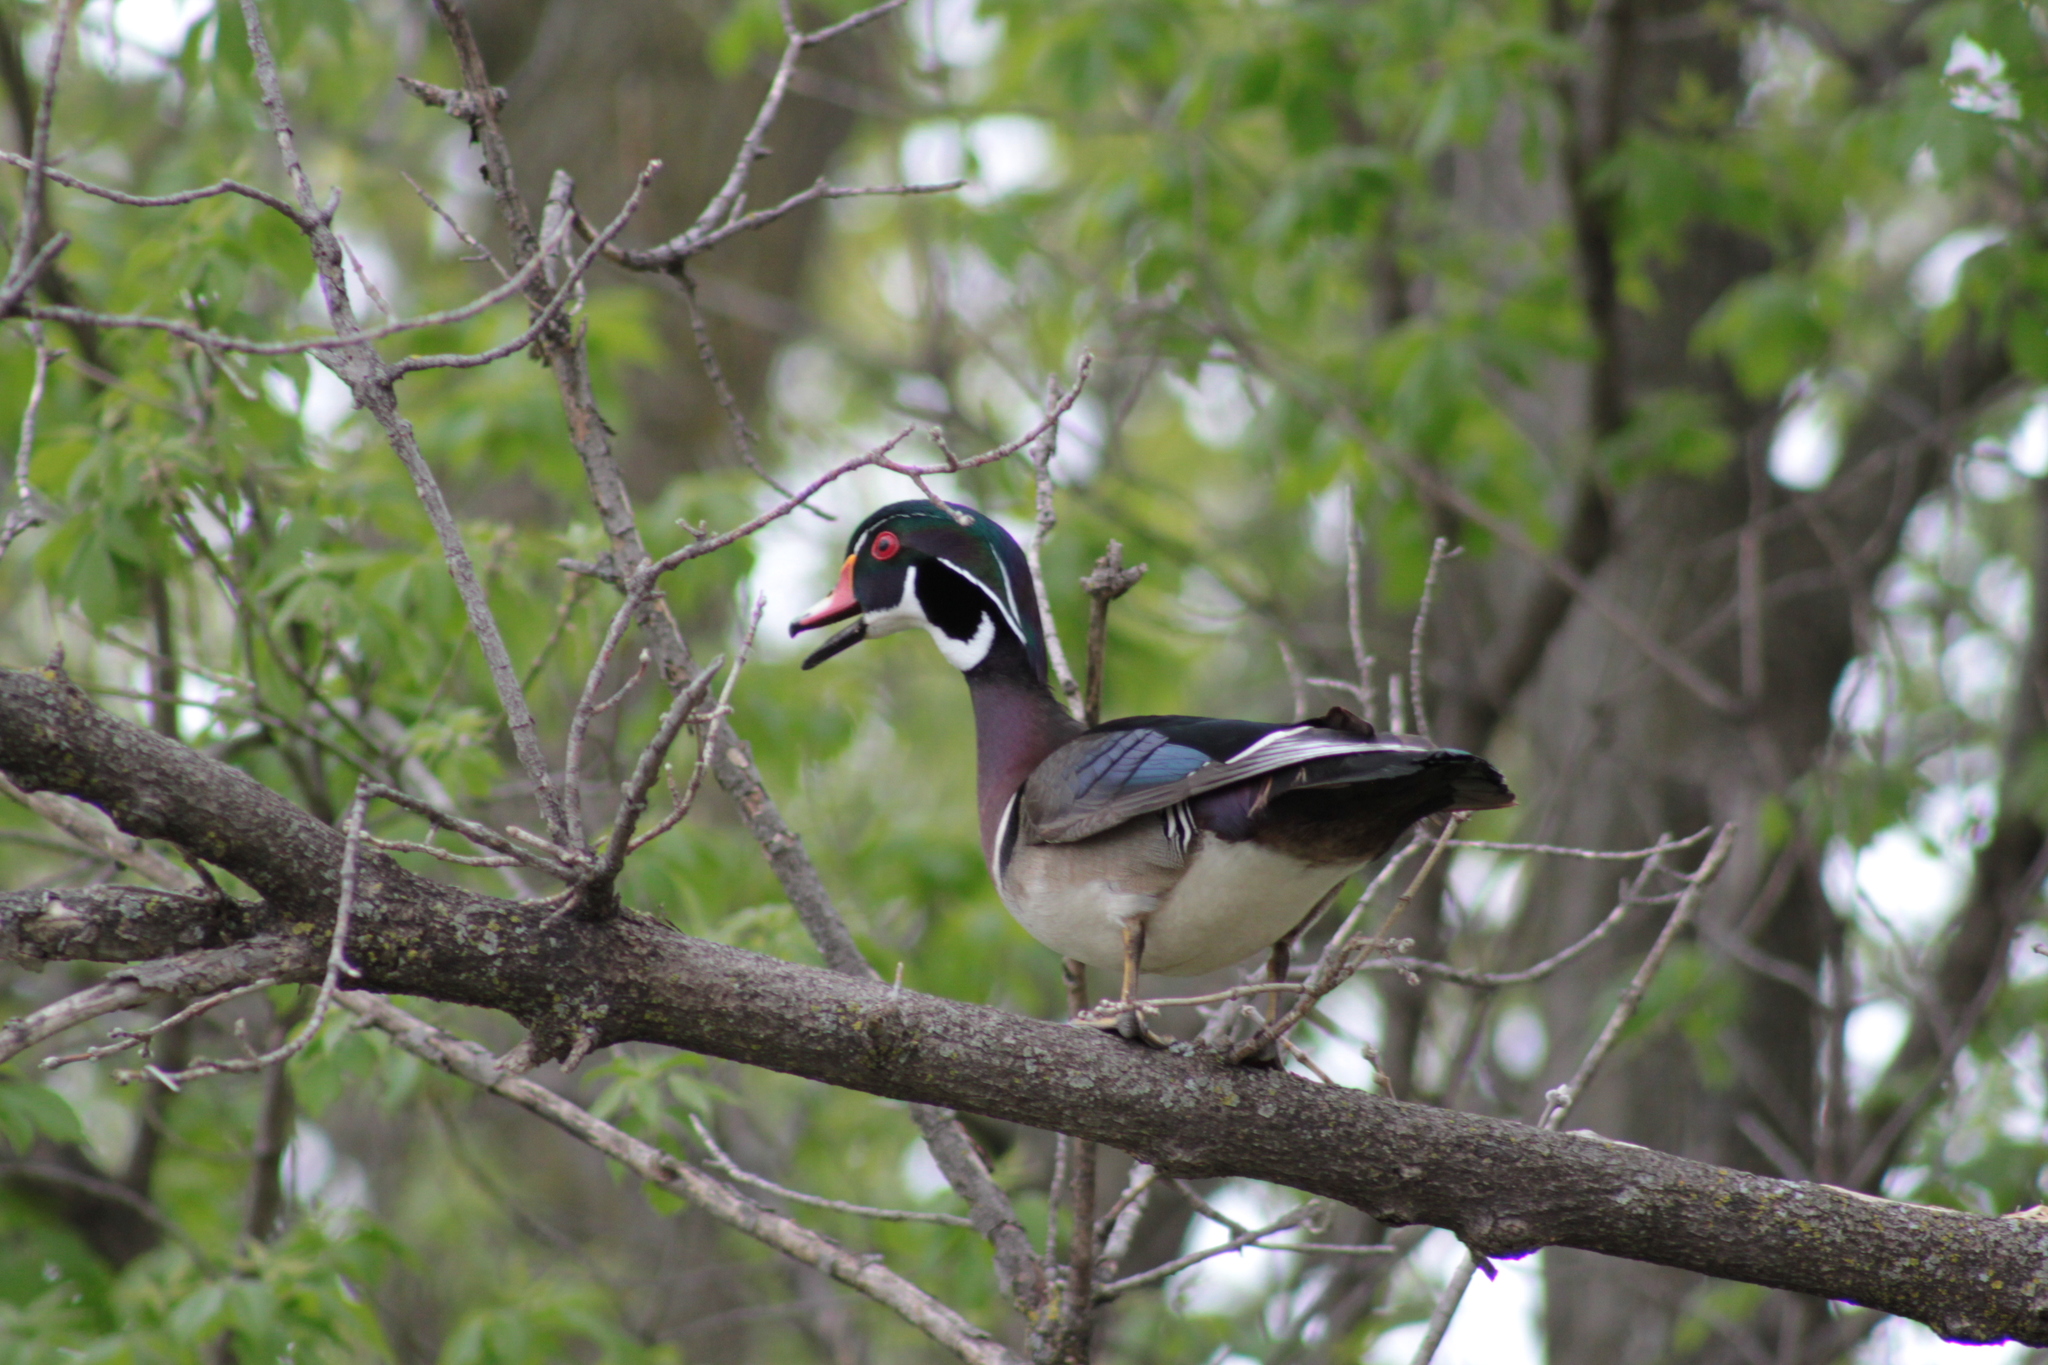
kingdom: Animalia
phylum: Chordata
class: Aves
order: Anseriformes
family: Anatidae
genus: Aix
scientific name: Aix sponsa
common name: Wood duck
